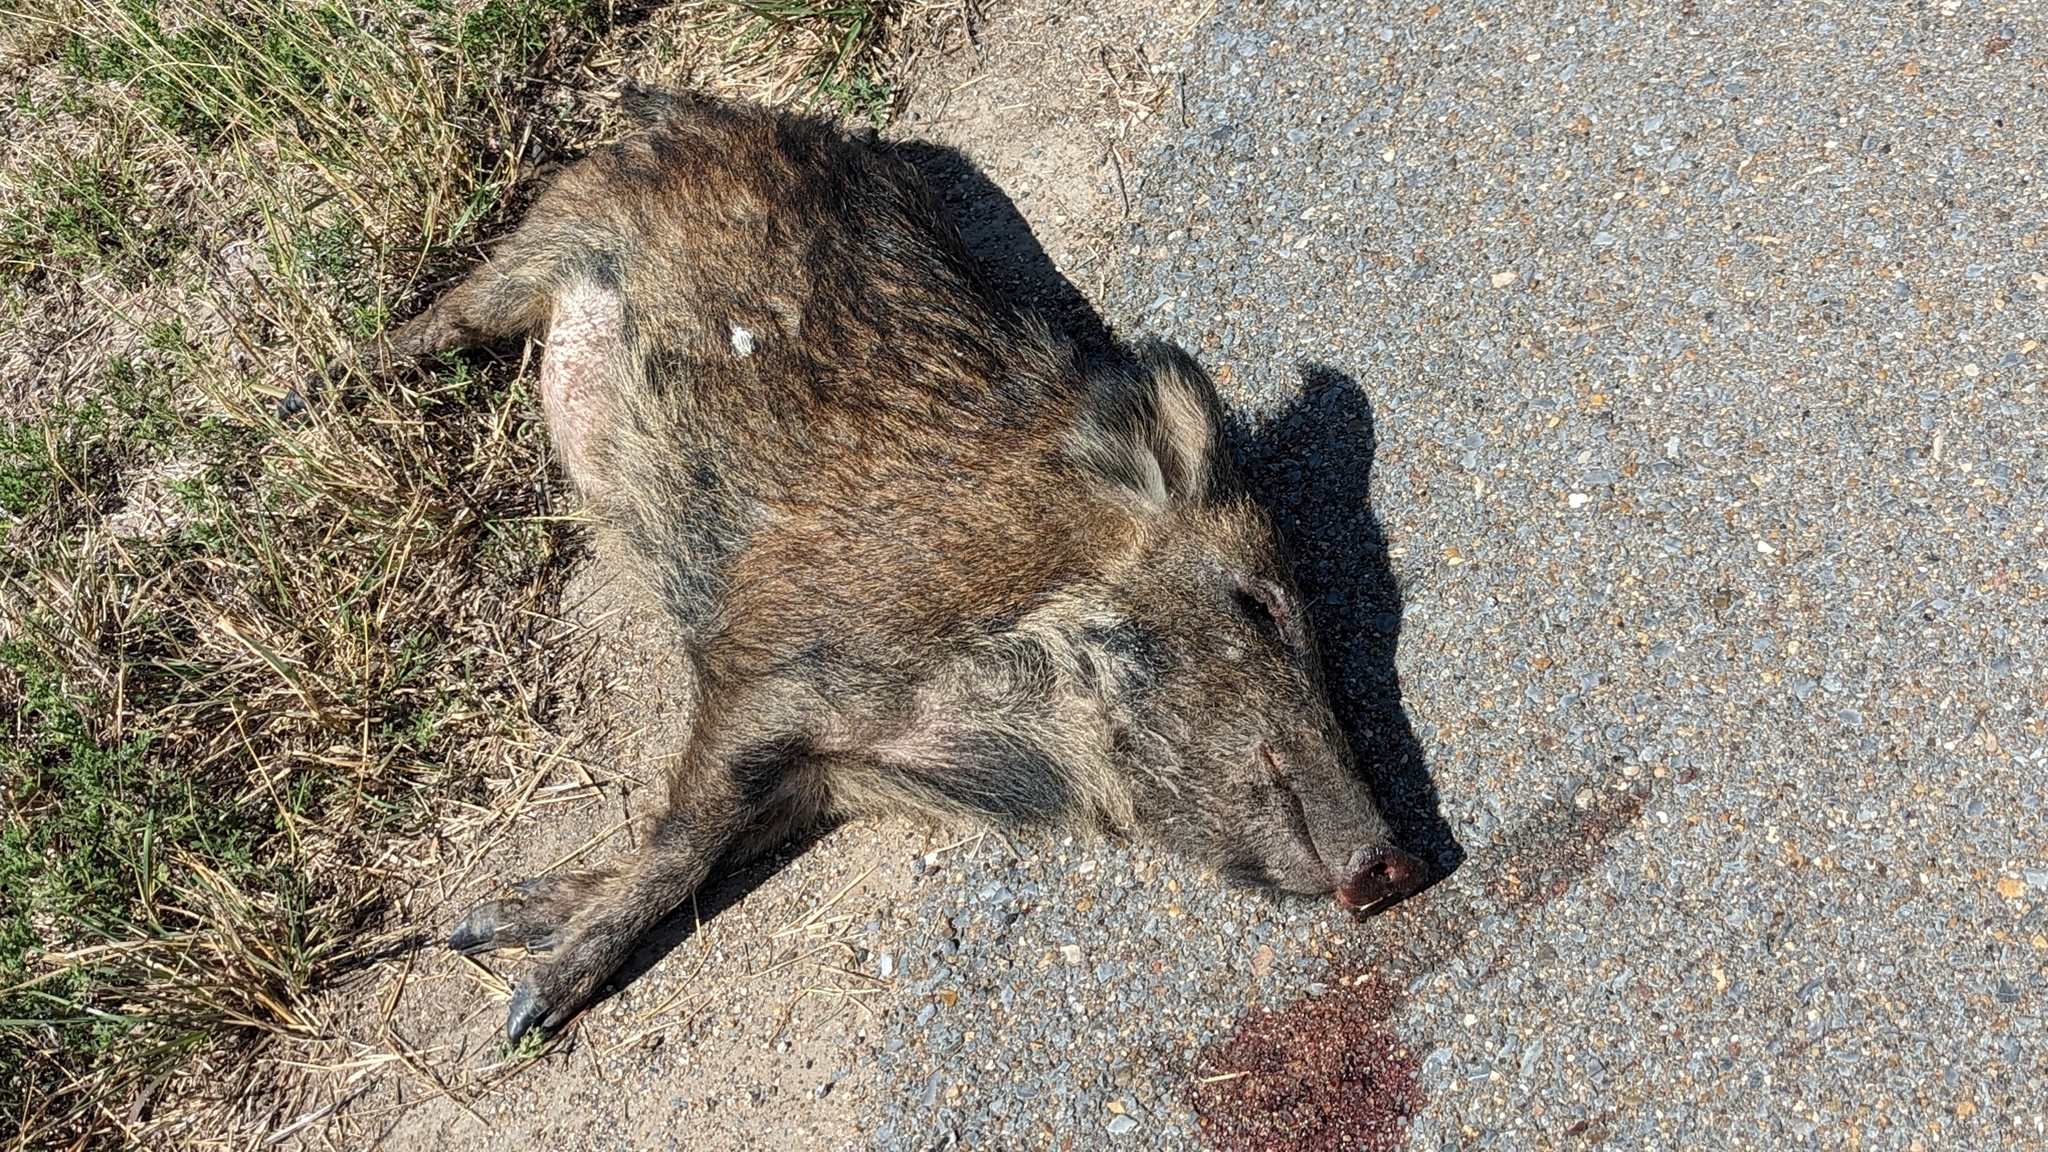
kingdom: Animalia
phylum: Chordata
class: Mammalia
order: Artiodactyla
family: Suidae
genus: Sus
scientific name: Sus scrofa
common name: Wild boar
